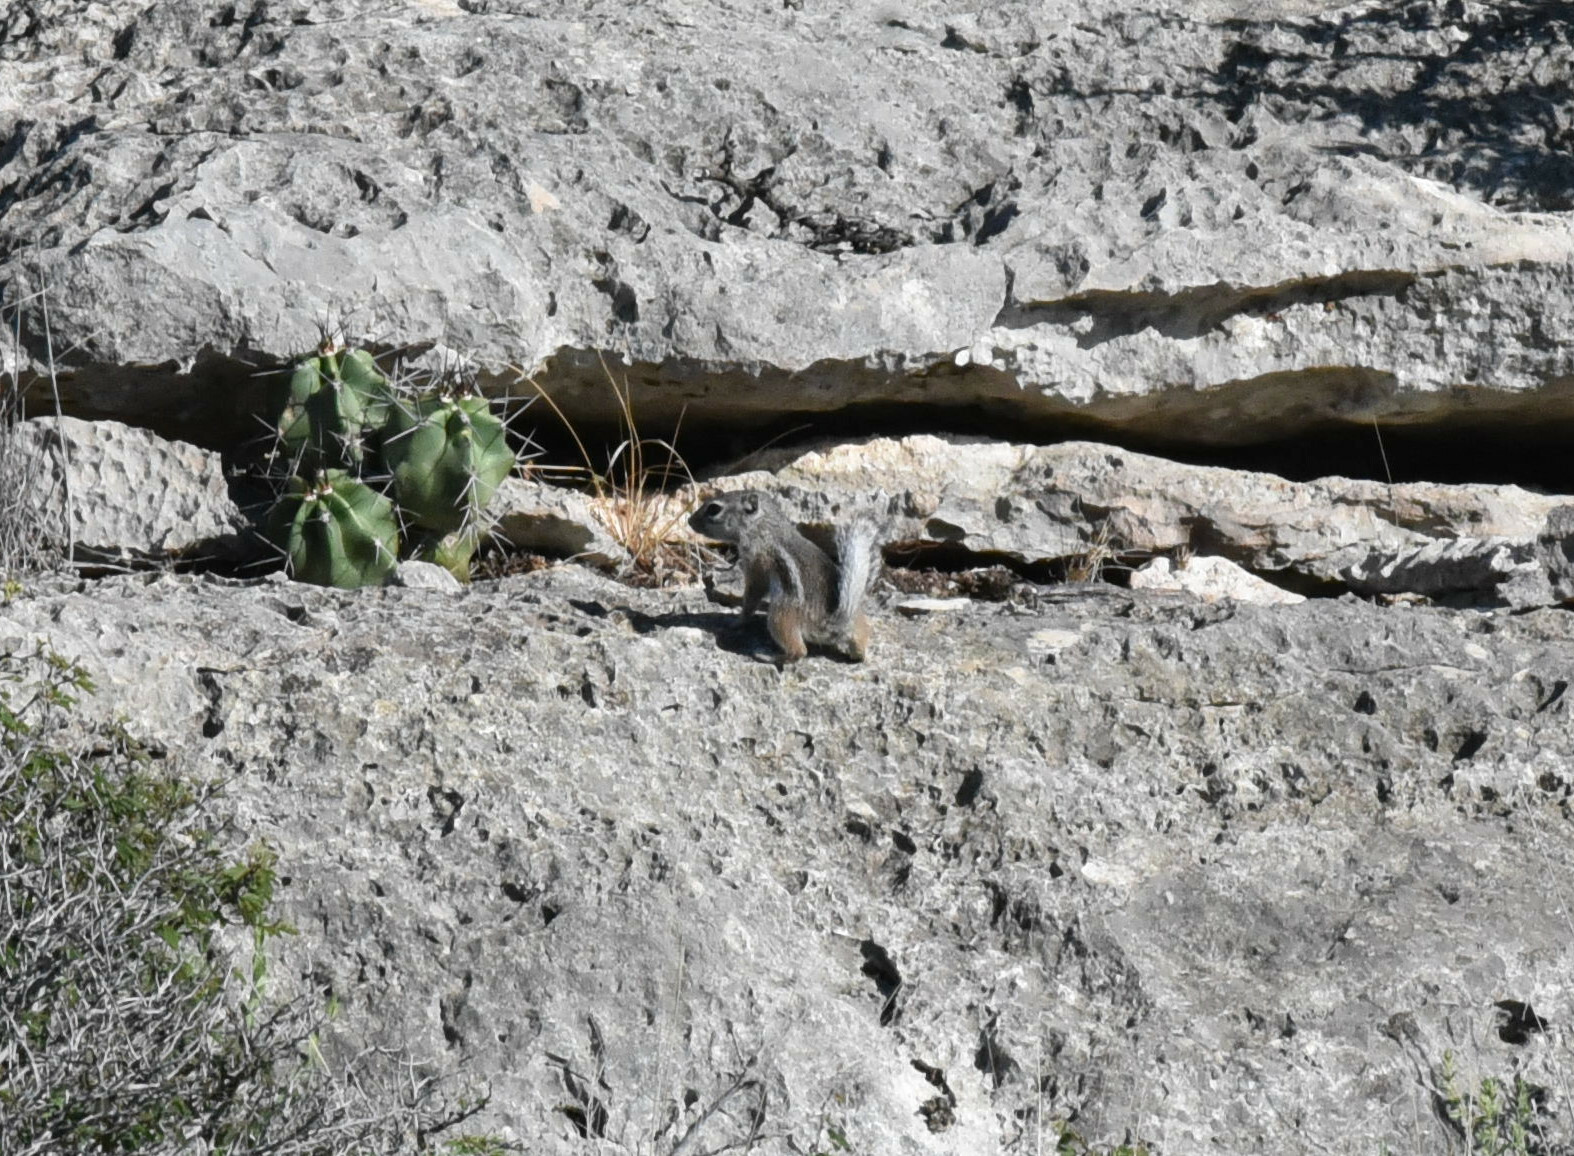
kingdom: Animalia
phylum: Chordata
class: Mammalia
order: Rodentia
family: Sciuridae
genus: Ammospermophilus
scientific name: Ammospermophilus interpres
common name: Texas antelope squirrel
